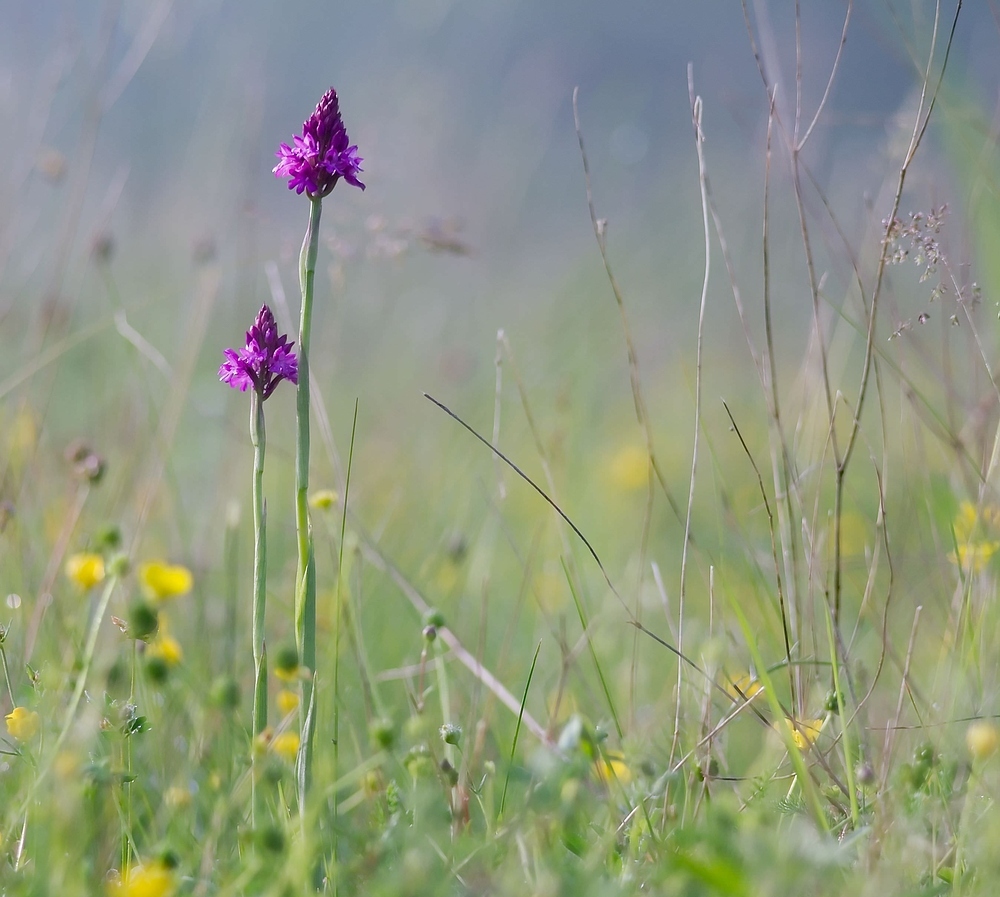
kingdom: Plantae
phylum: Tracheophyta
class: Liliopsida
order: Asparagales
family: Orchidaceae
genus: Anacamptis
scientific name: Anacamptis pyramidalis
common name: Pyramidal orchid
